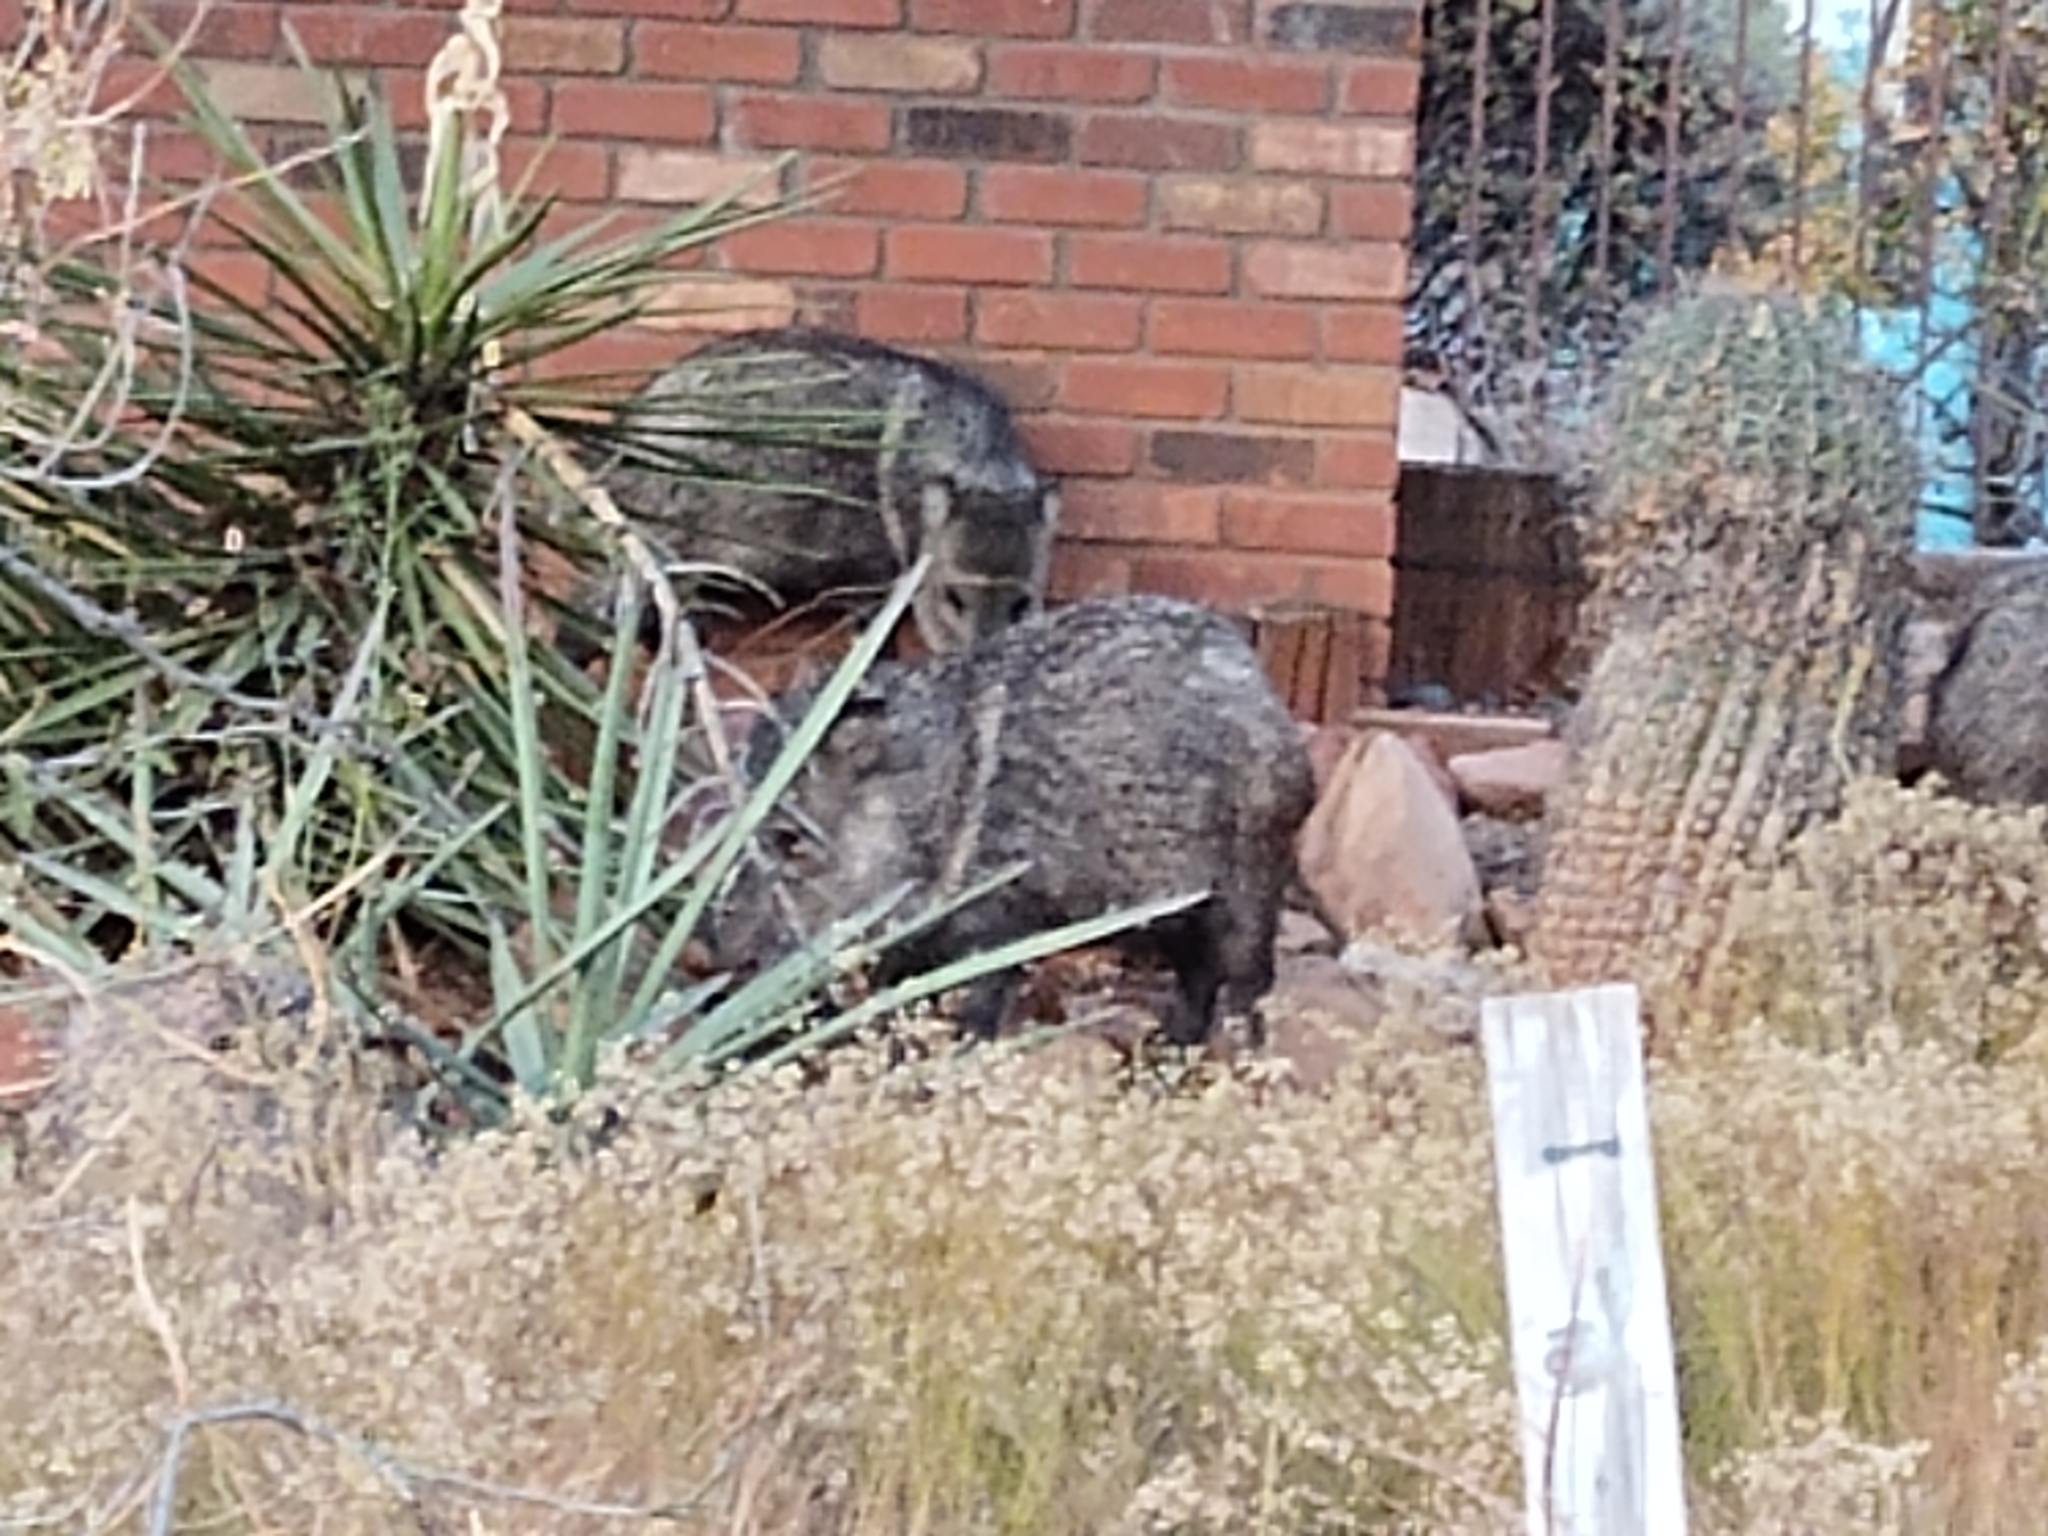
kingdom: Animalia
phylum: Chordata
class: Mammalia
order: Artiodactyla
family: Tayassuidae
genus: Pecari
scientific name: Pecari tajacu
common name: Collared peccary
